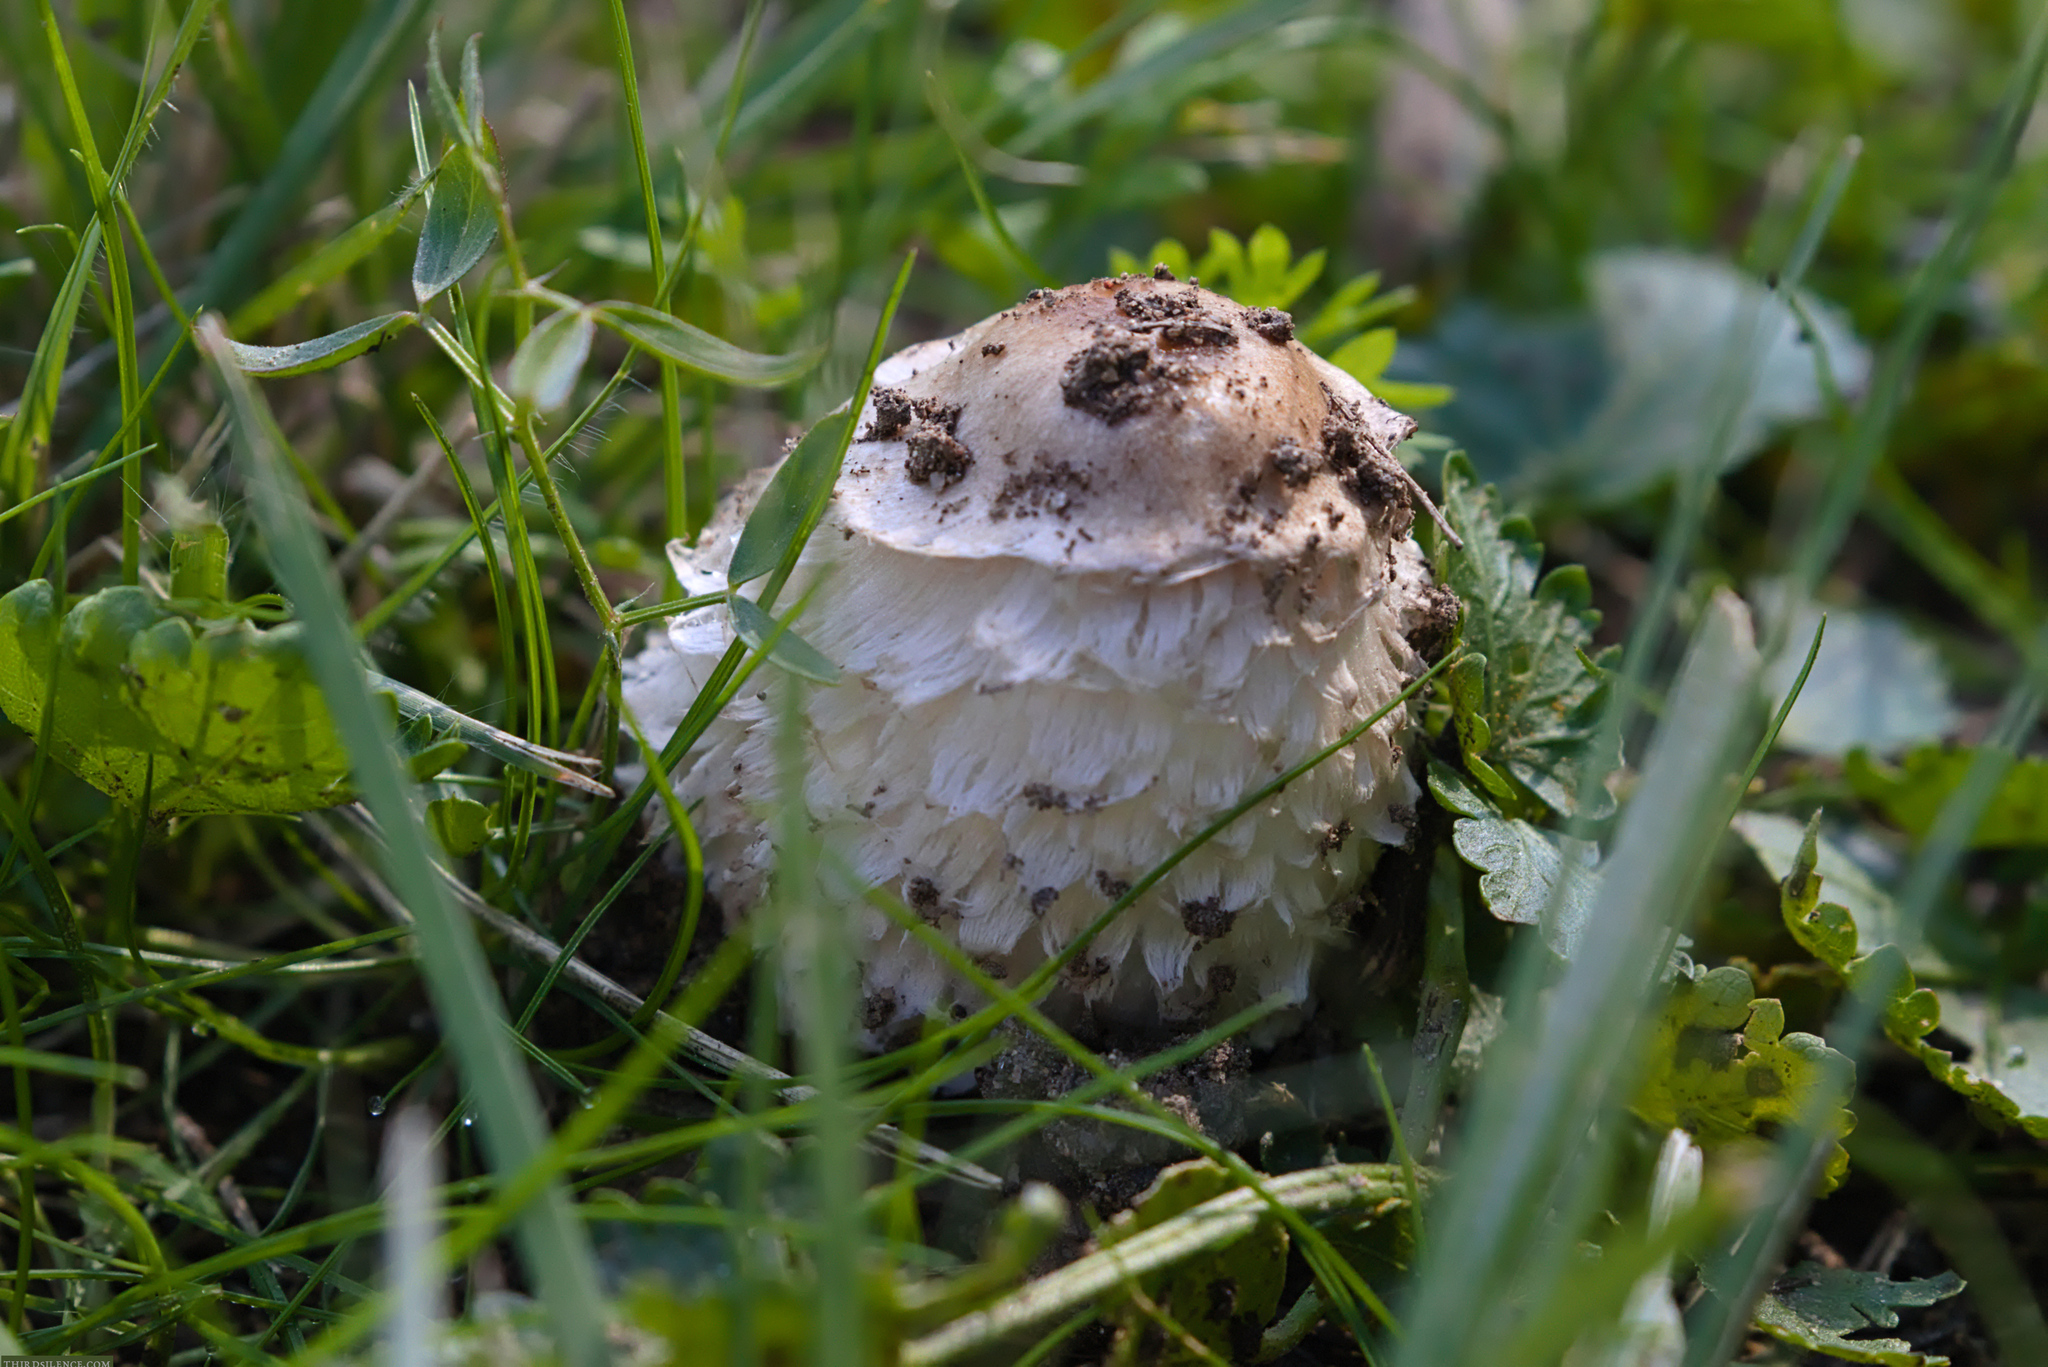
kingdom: Fungi
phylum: Basidiomycota
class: Agaricomycetes
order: Agaricales
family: Agaricaceae
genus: Coprinus
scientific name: Coprinus comatus
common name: Lawyer's wig
